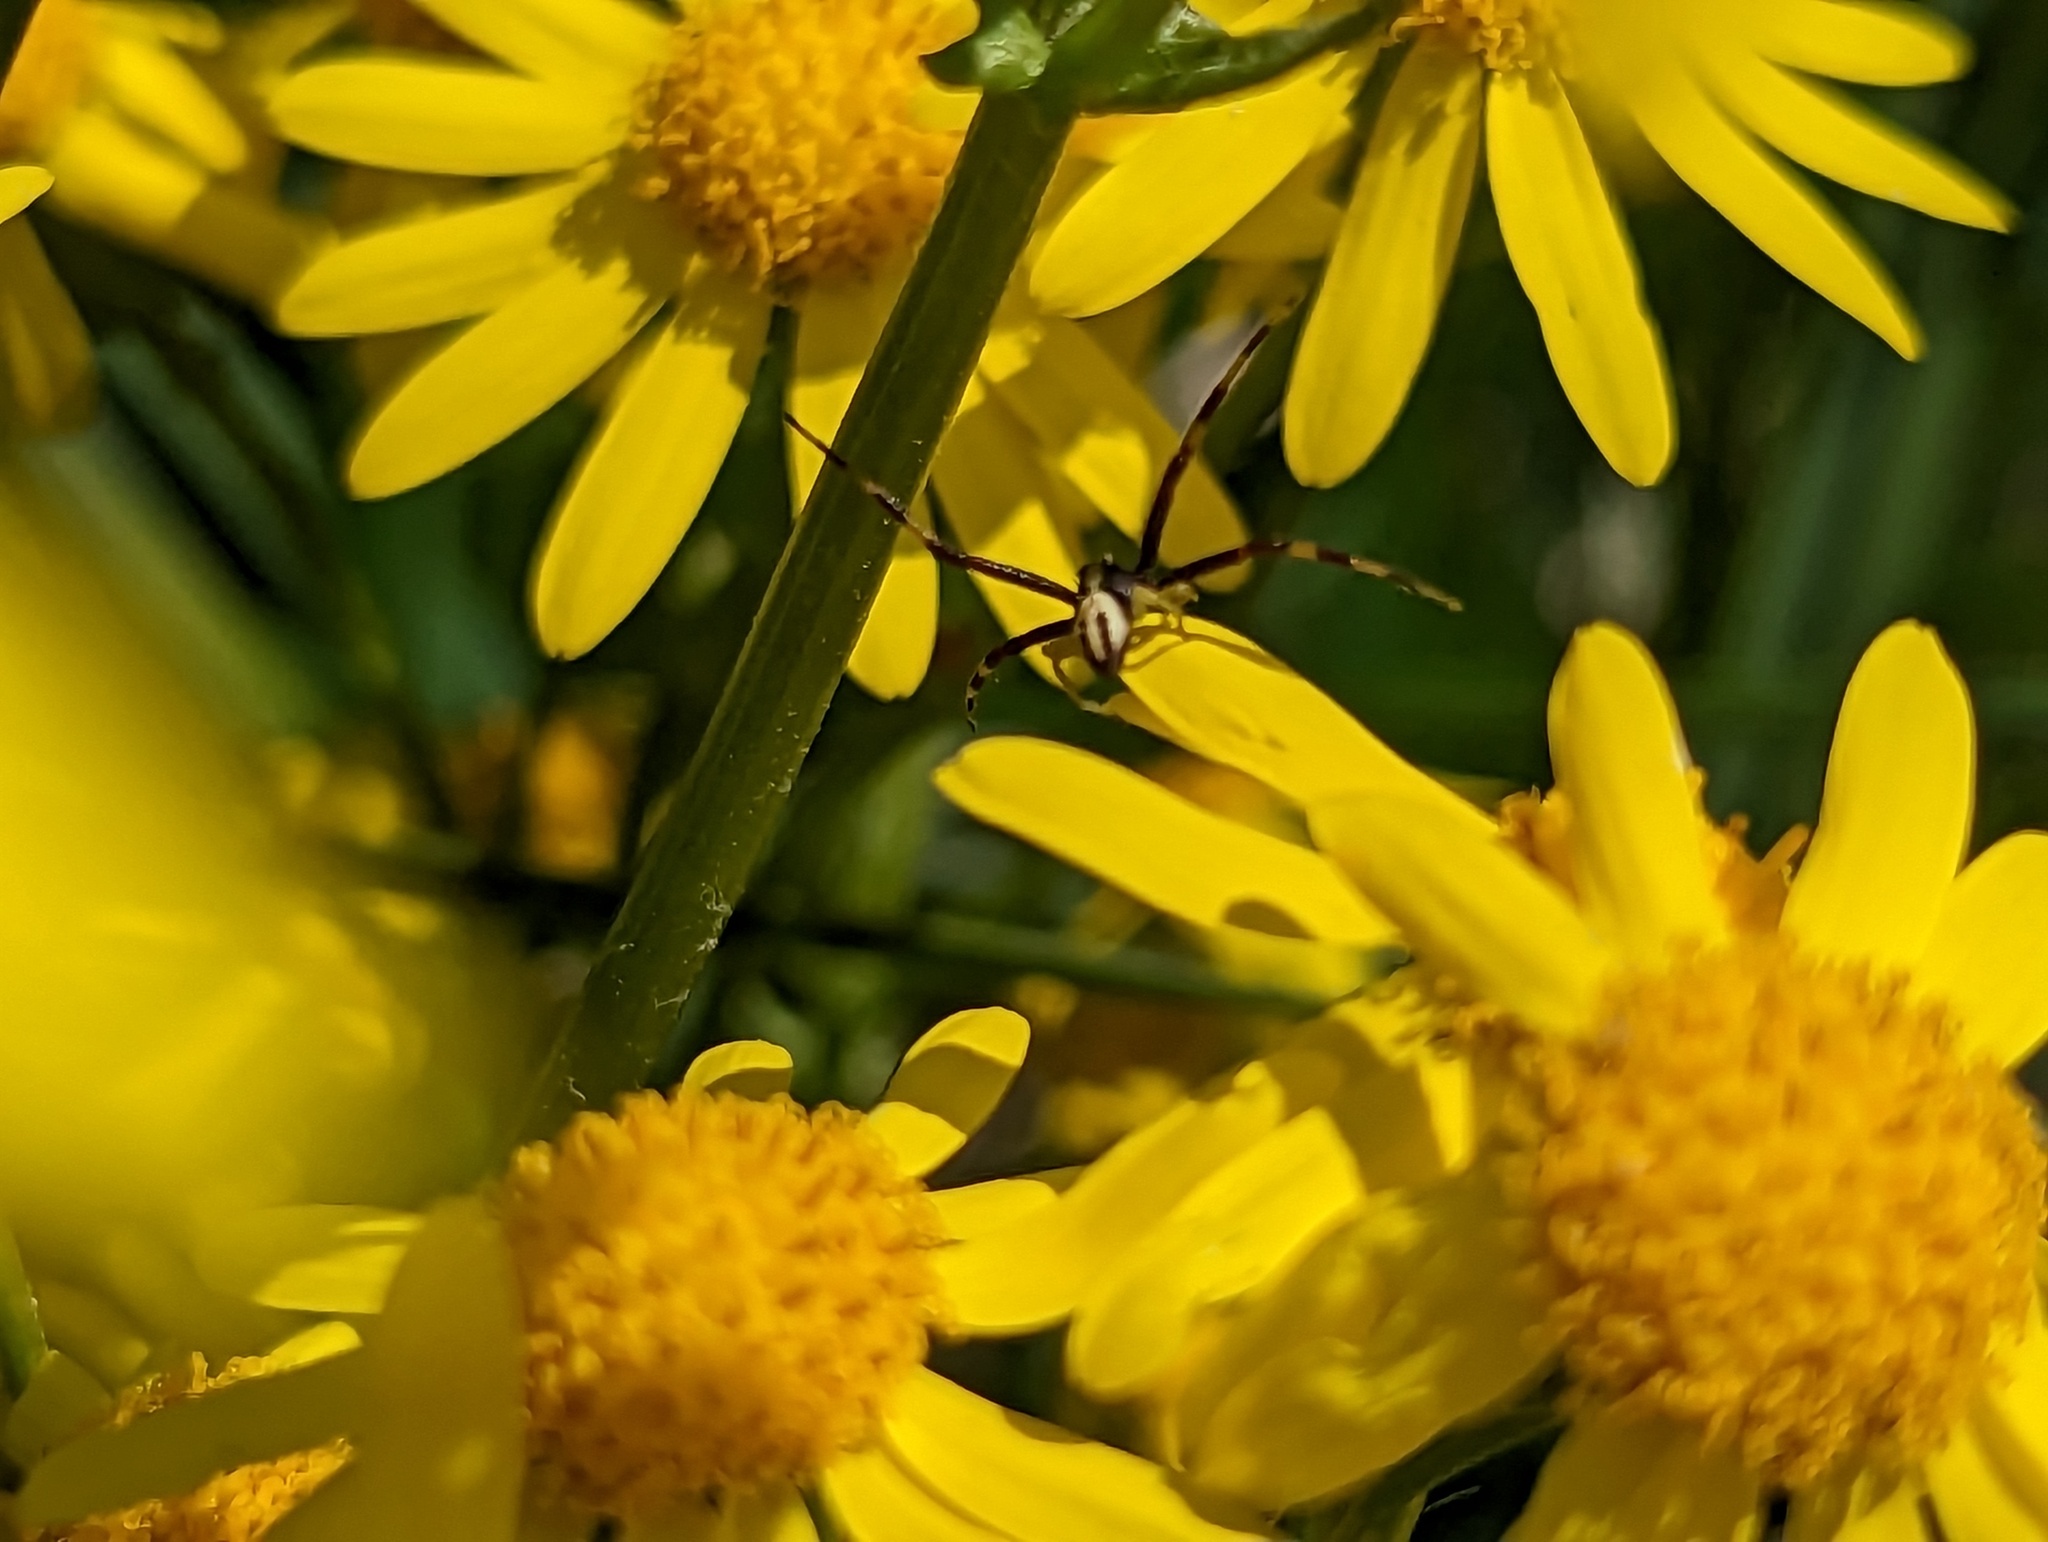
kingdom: Animalia
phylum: Arthropoda
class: Arachnida
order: Araneae
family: Thomisidae
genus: Misumena
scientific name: Misumena vatia
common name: Goldenrod crab spider
